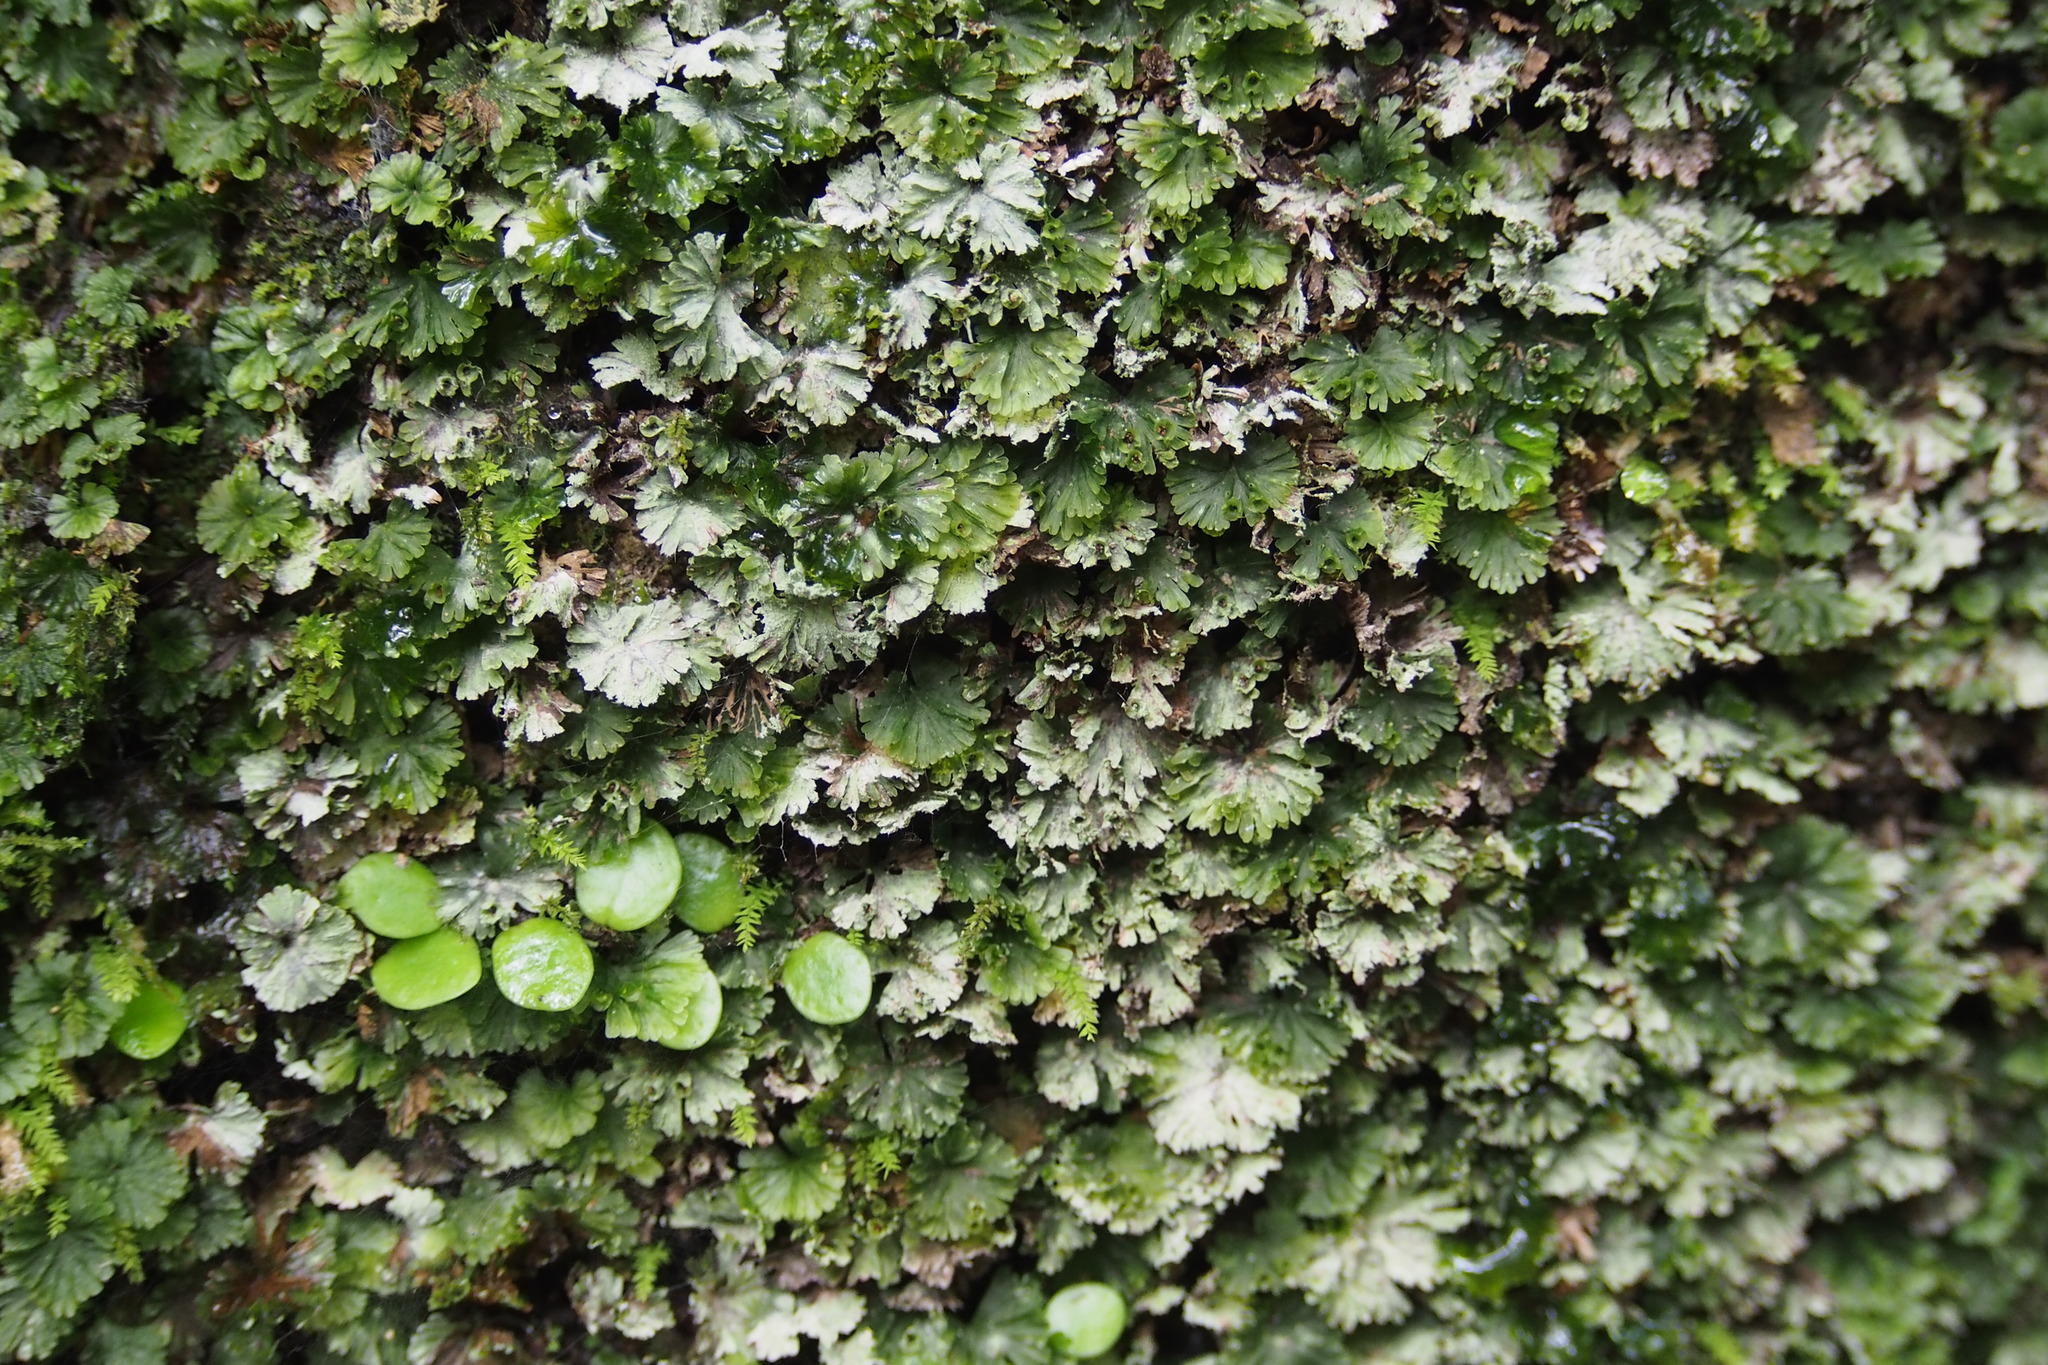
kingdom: Plantae
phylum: Tracheophyta
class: Polypodiopsida
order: Hymenophyllales
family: Hymenophyllaceae
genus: Crepidomanes
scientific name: Crepidomanes parvulum
